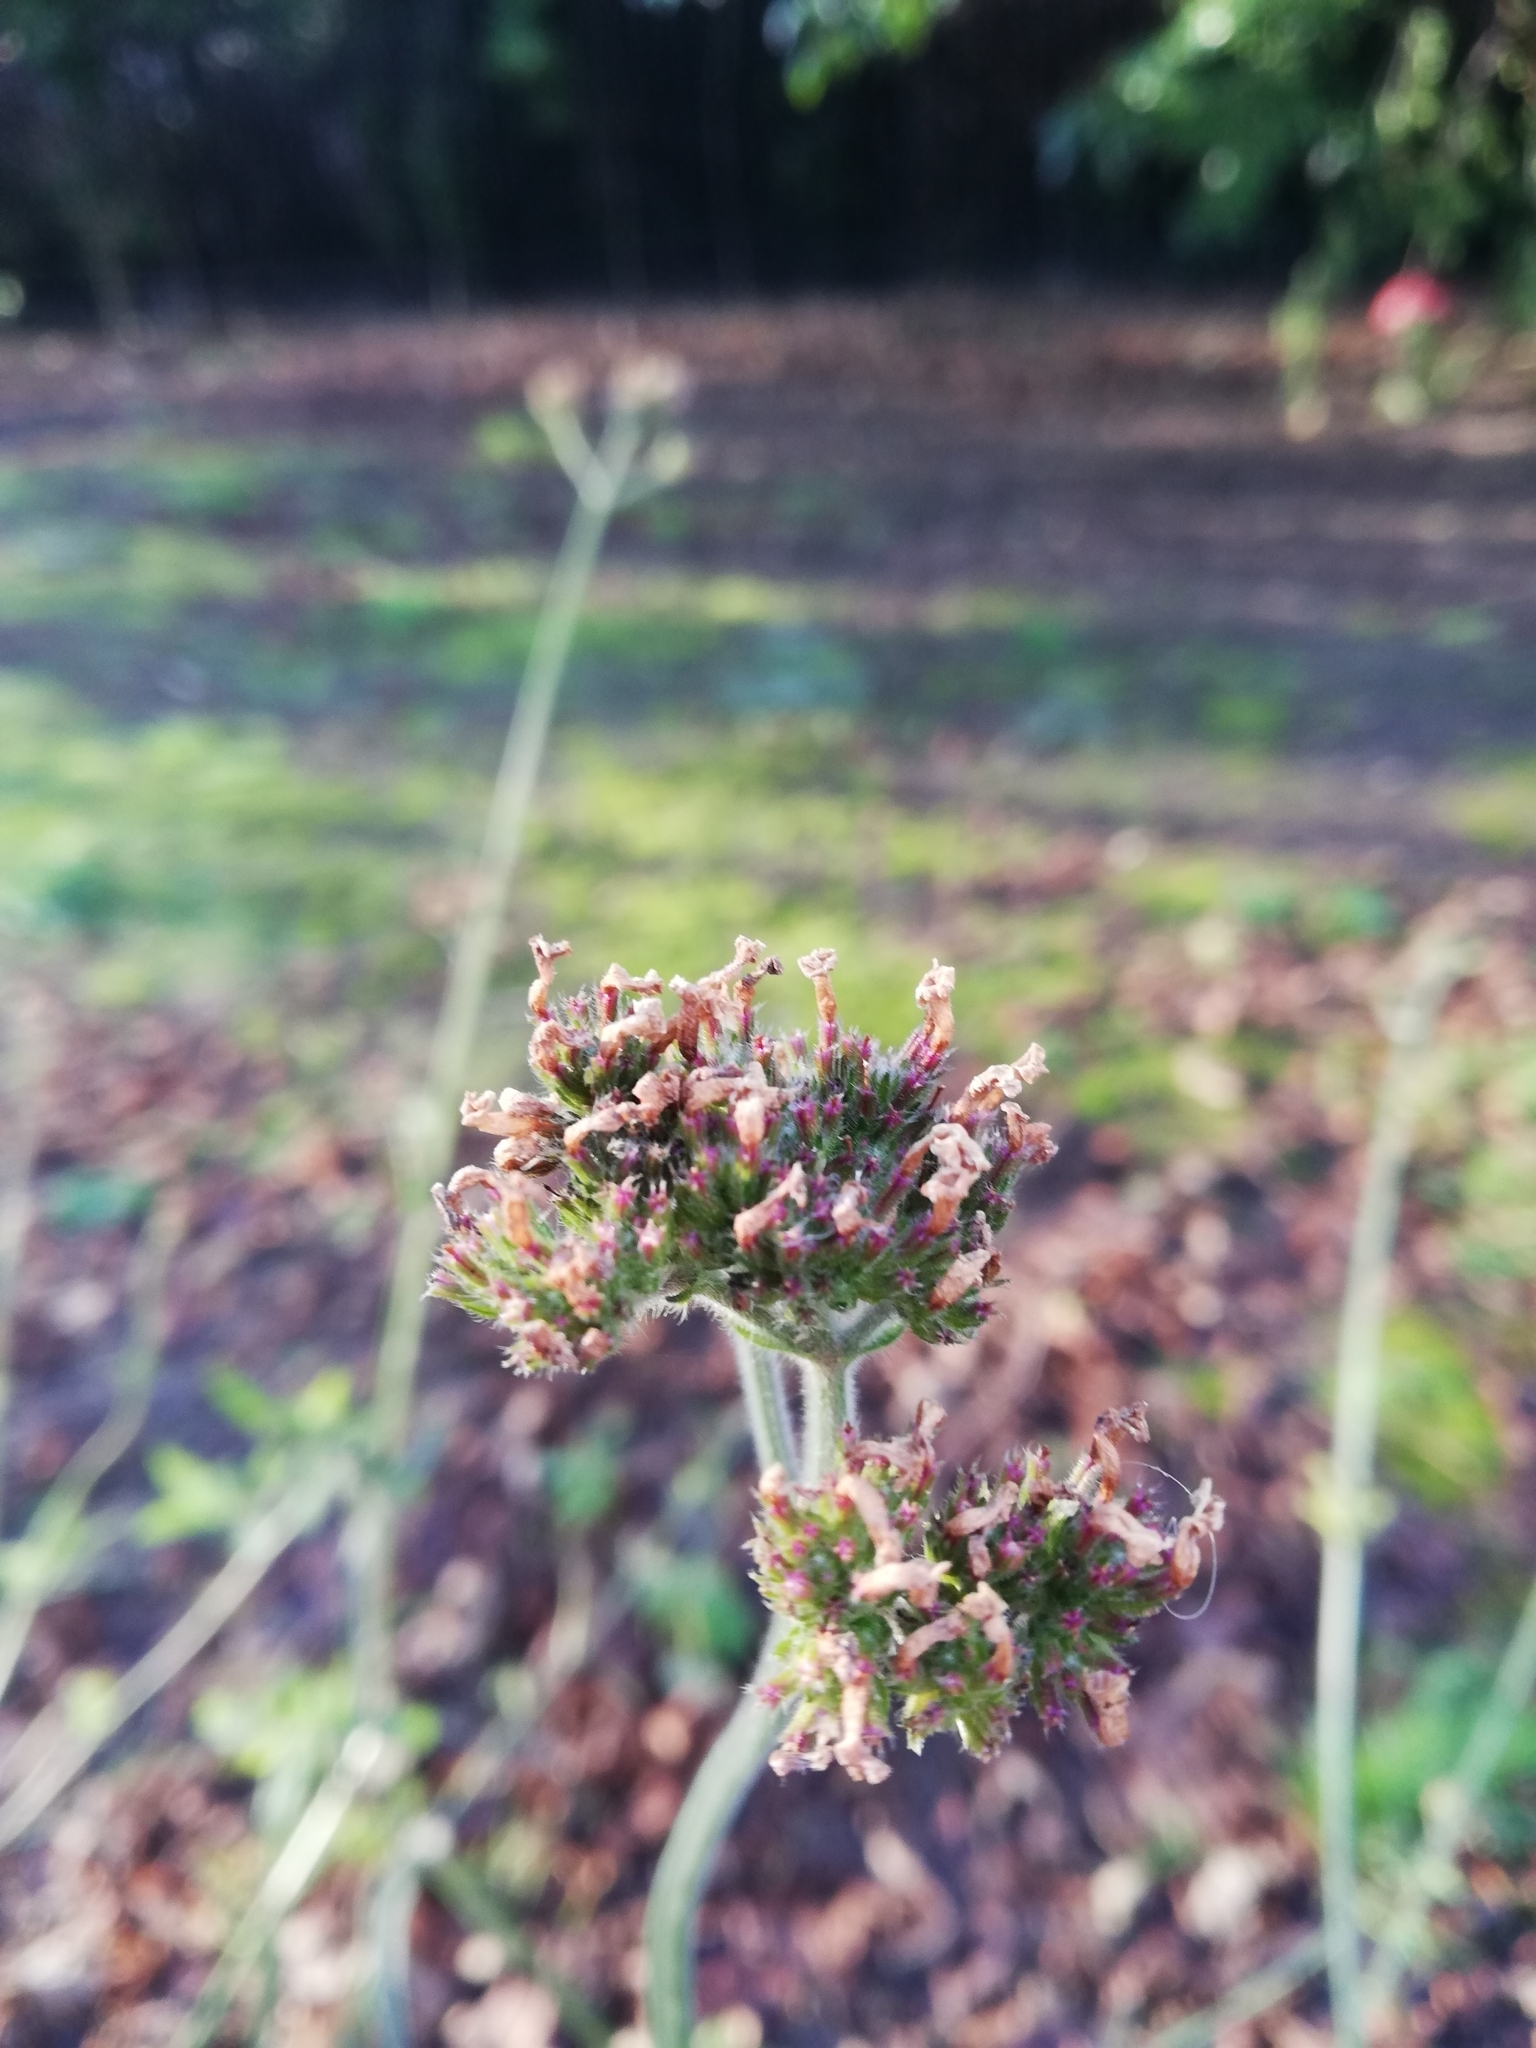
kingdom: Plantae
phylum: Tracheophyta
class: Magnoliopsida
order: Lamiales
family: Verbenaceae
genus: Verbena
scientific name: Verbena bonariensis
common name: Purpletop vervain
